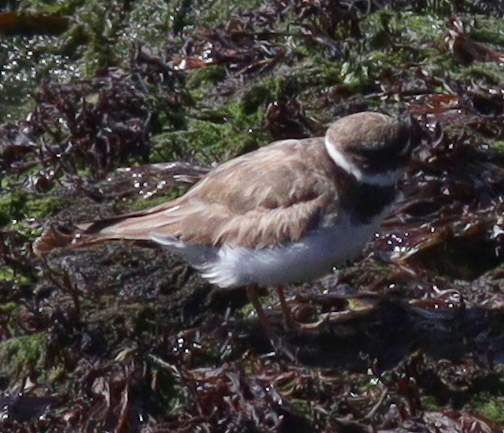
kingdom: Animalia
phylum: Chordata
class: Aves
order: Charadriiformes
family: Charadriidae
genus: Charadrius
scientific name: Charadrius hiaticula
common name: Common ringed plover
